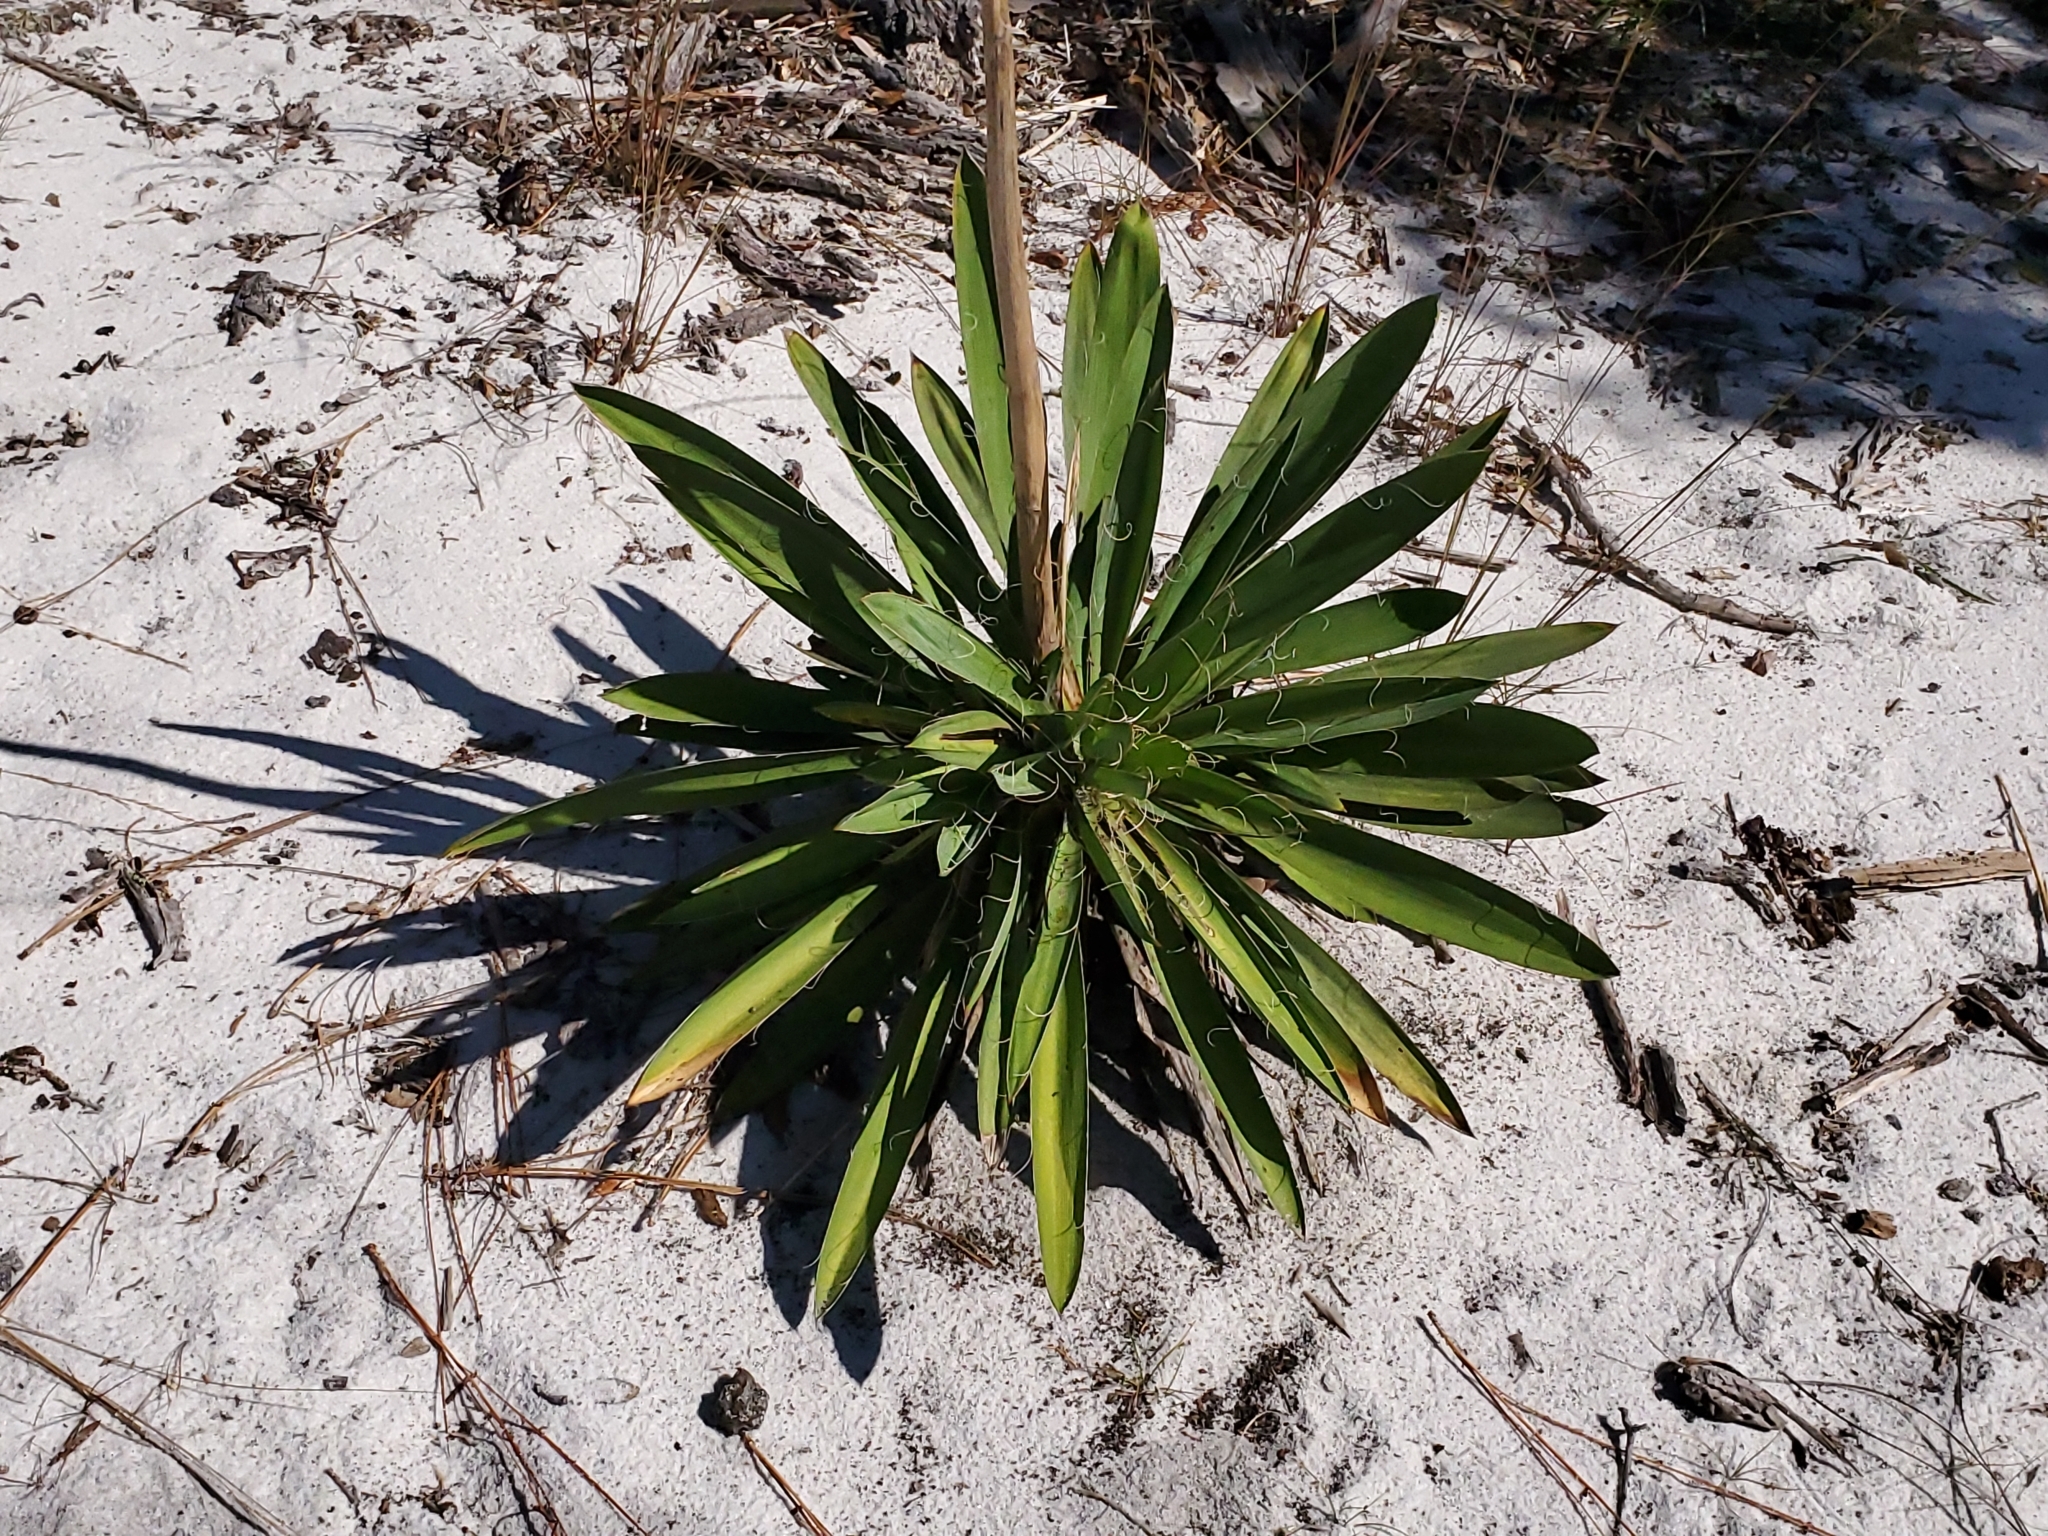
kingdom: Plantae
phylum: Tracheophyta
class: Liliopsida
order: Asparagales
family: Asparagaceae
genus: Yucca
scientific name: Yucca filamentosa
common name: Adam's-needle
